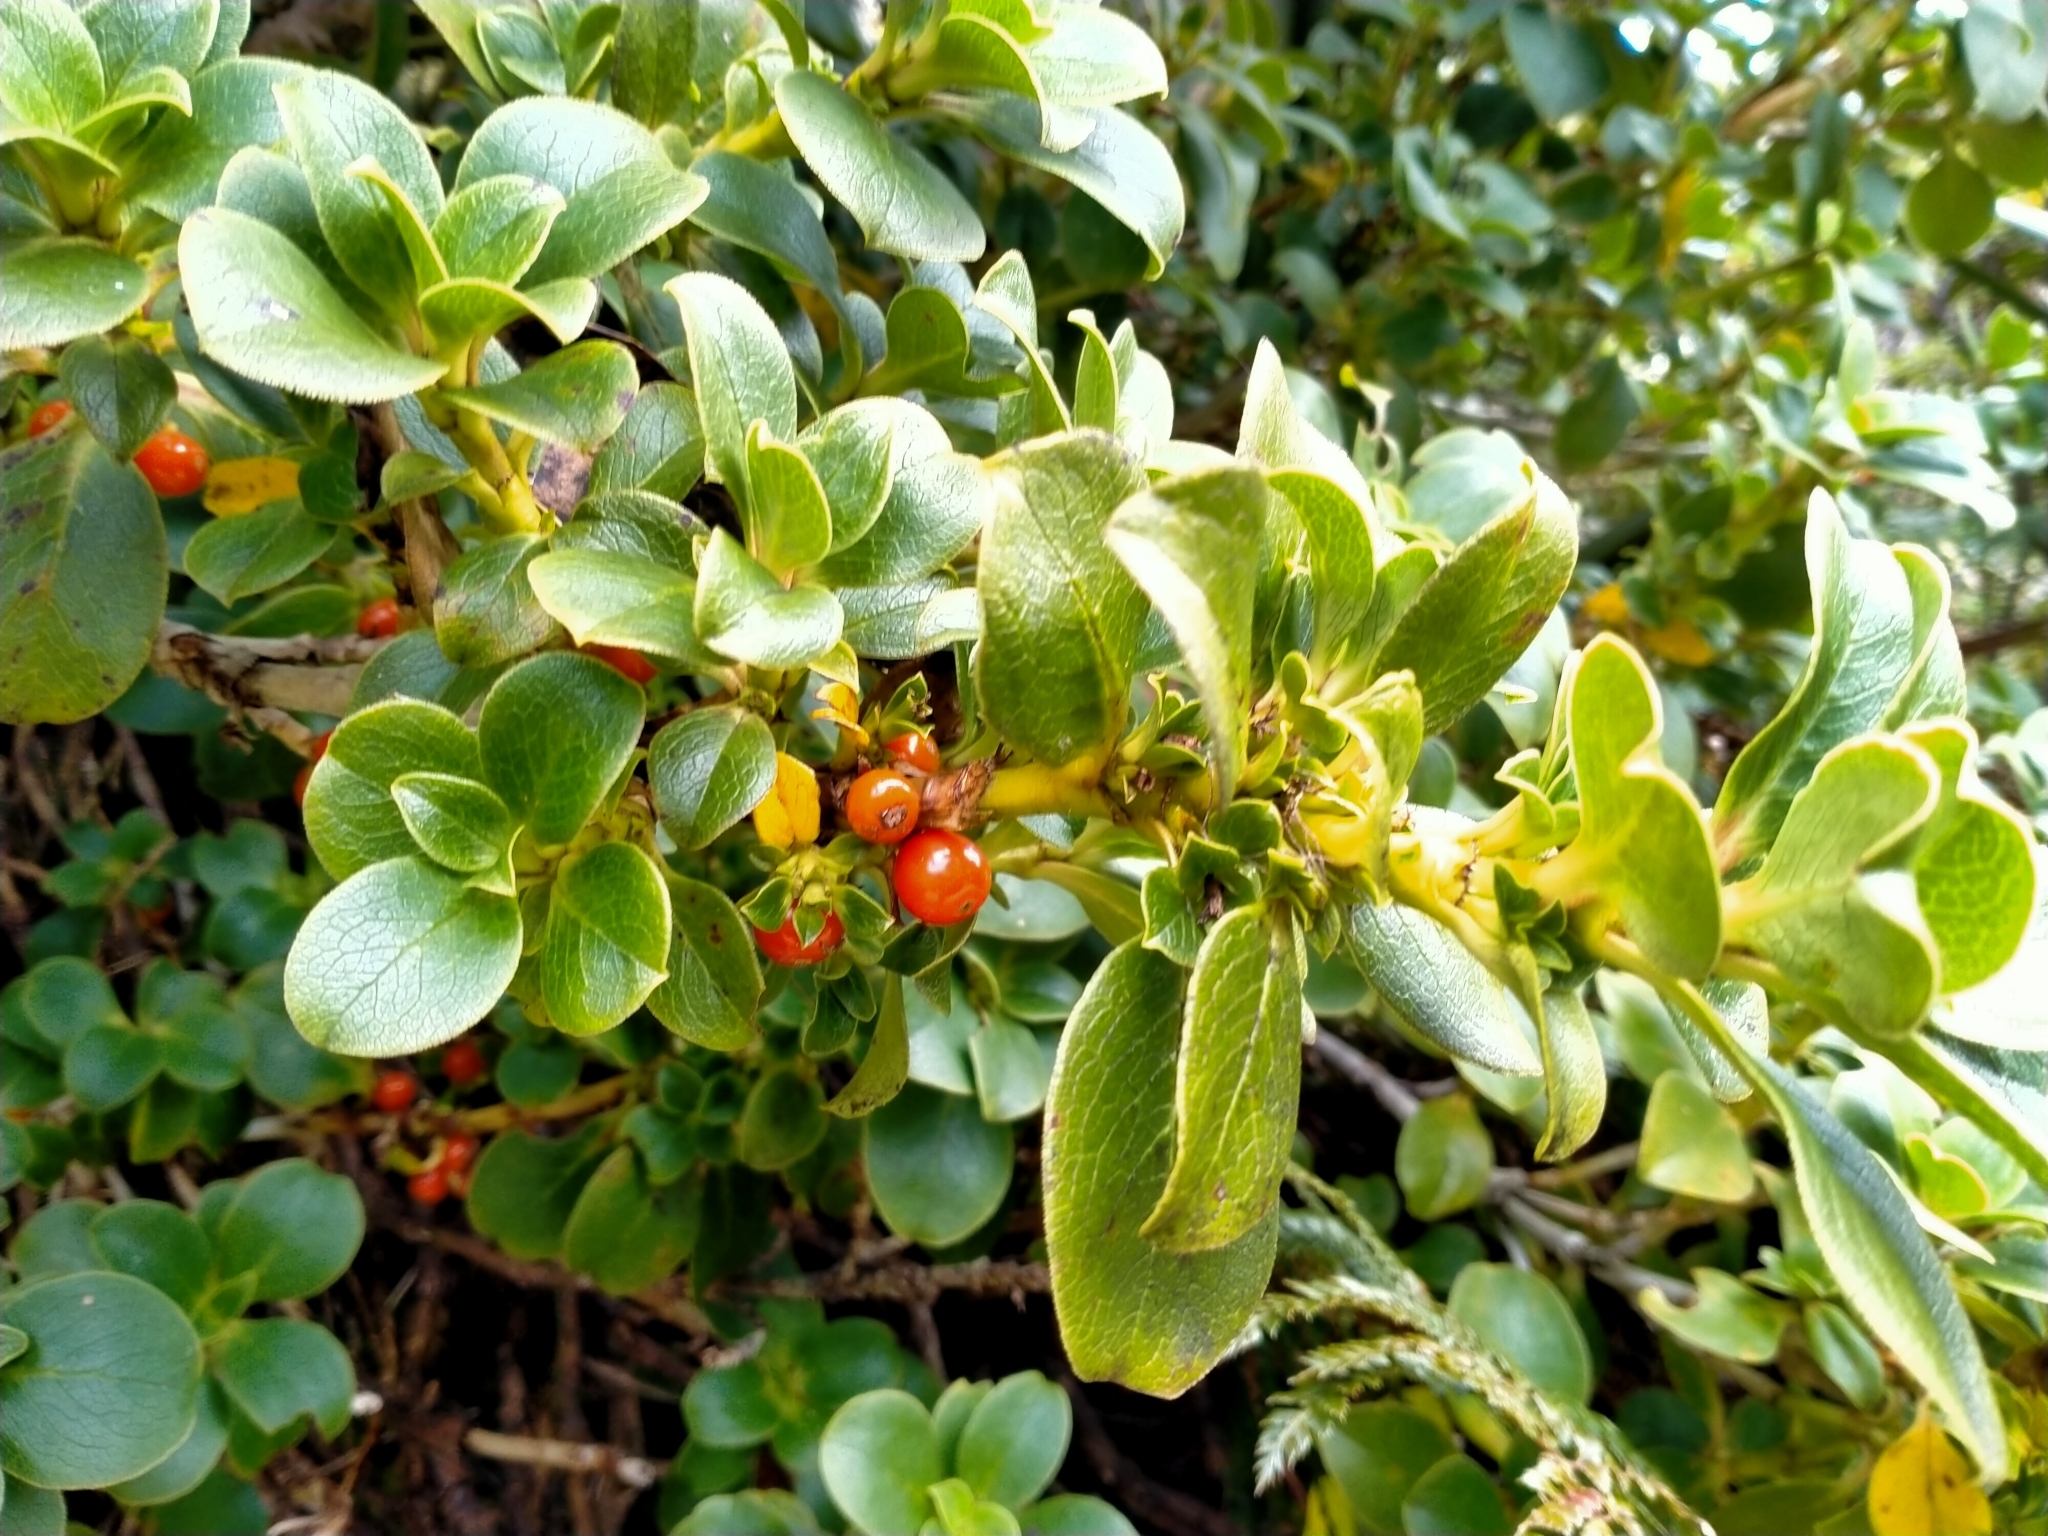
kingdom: Plantae
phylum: Tracheophyta
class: Magnoliopsida
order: Gentianales
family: Rubiaceae
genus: Coprosma
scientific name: Coprosma serrulata
